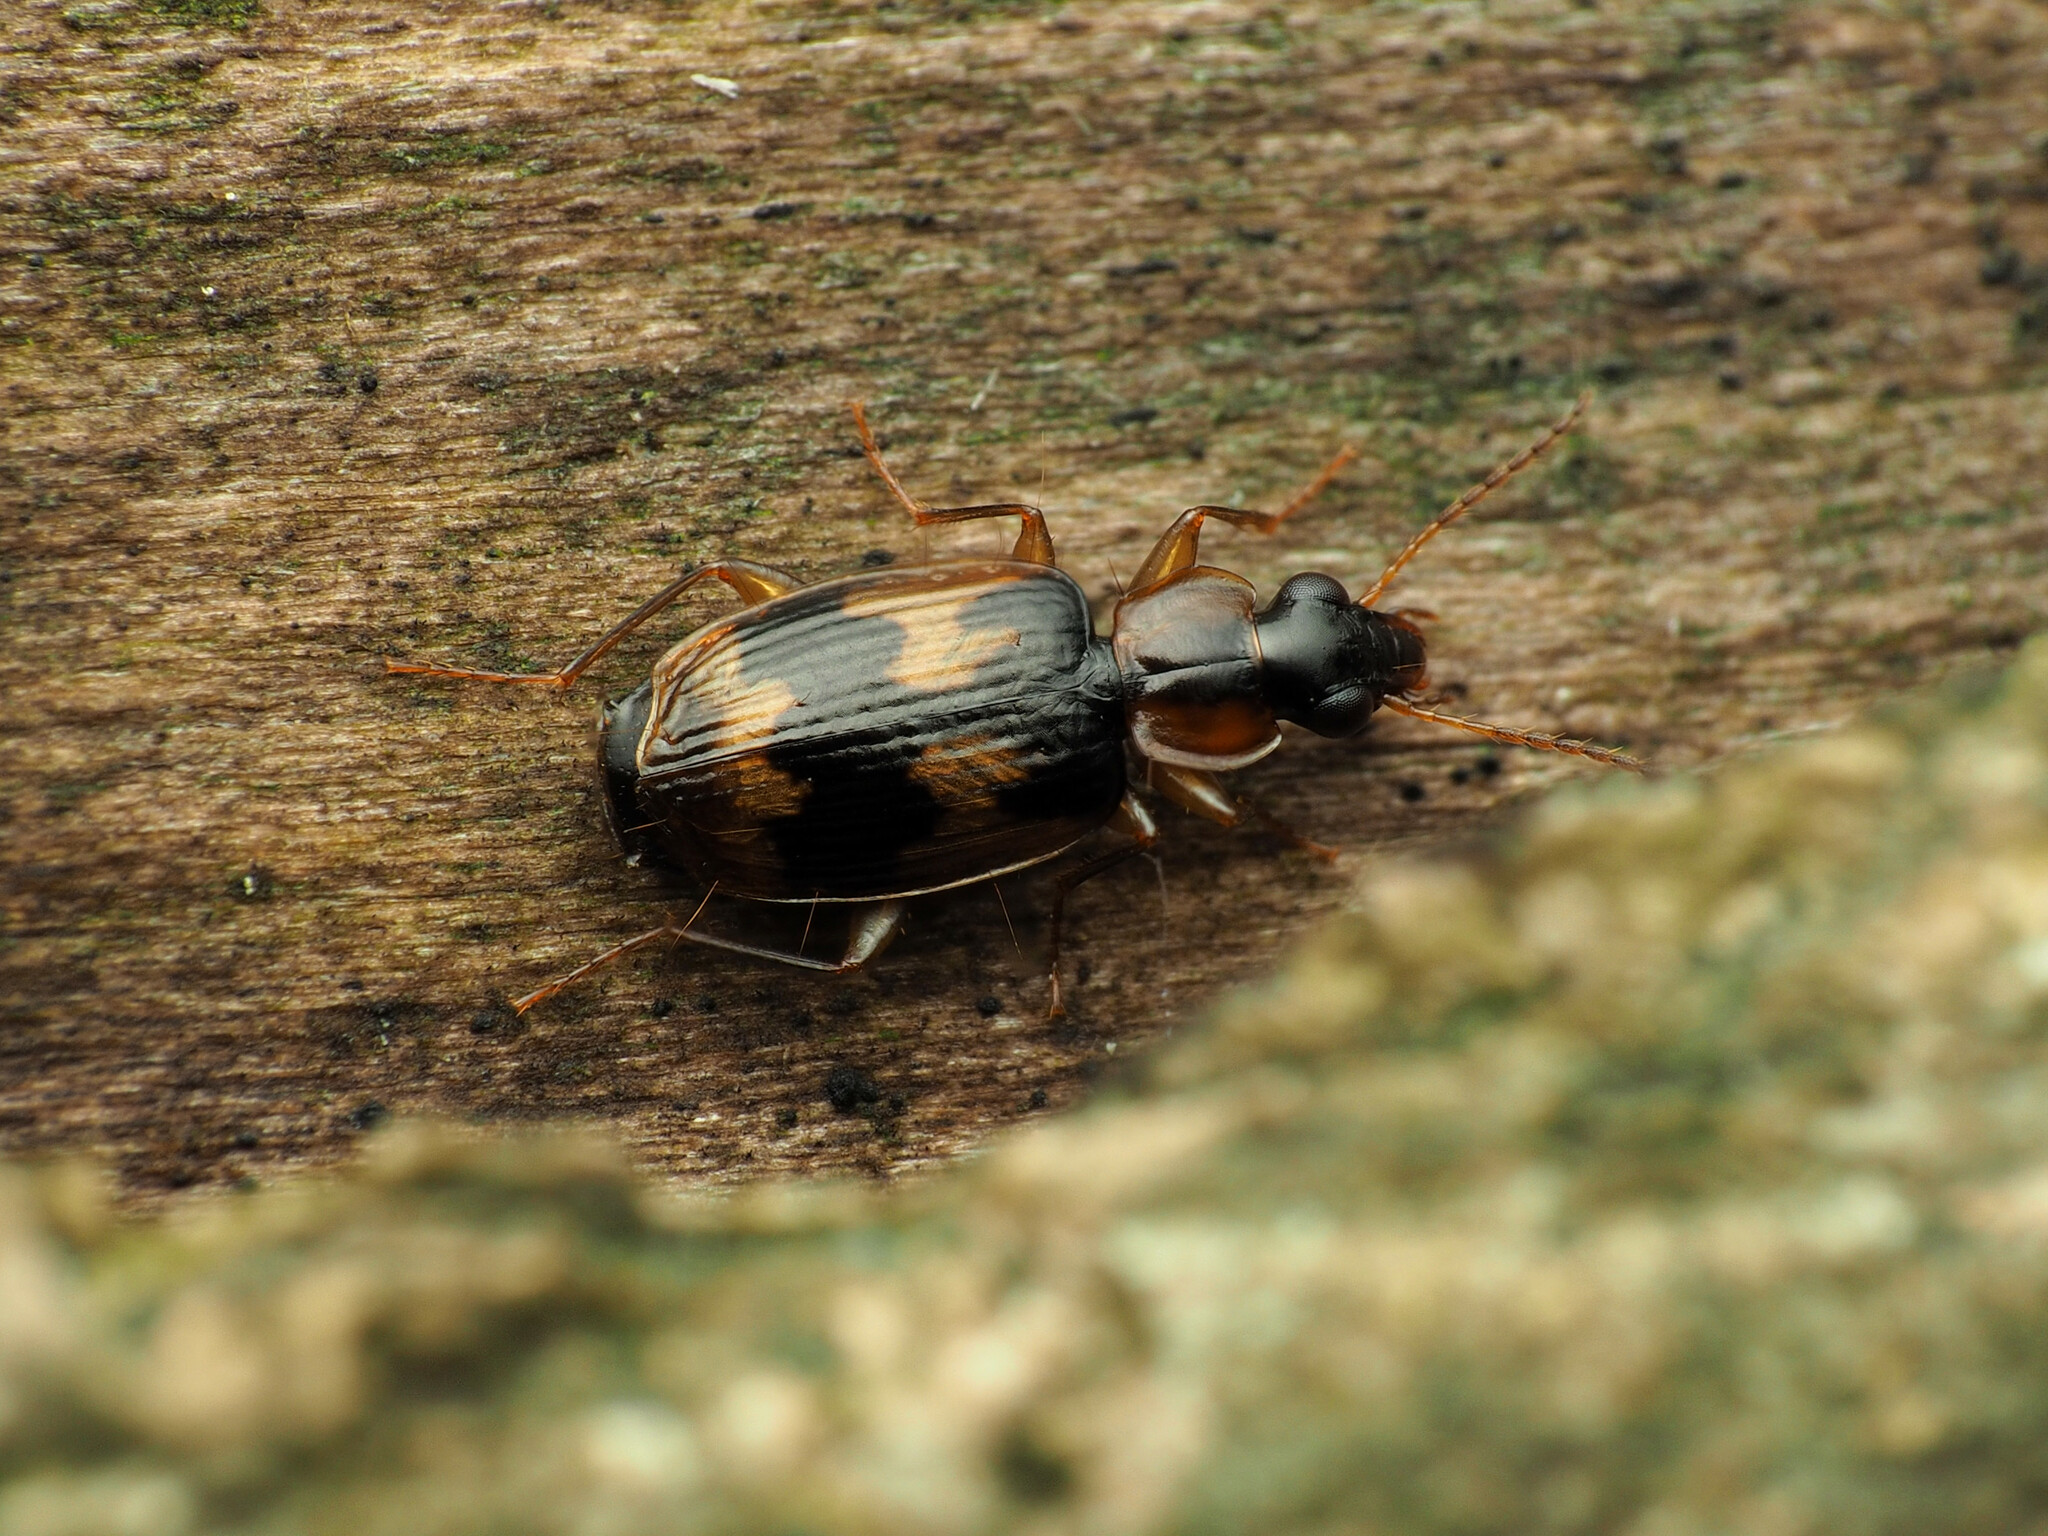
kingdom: Animalia
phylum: Arthropoda
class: Insecta
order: Coleoptera
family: Carabidae
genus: Phloeoxena
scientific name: Phloeoxena signata
